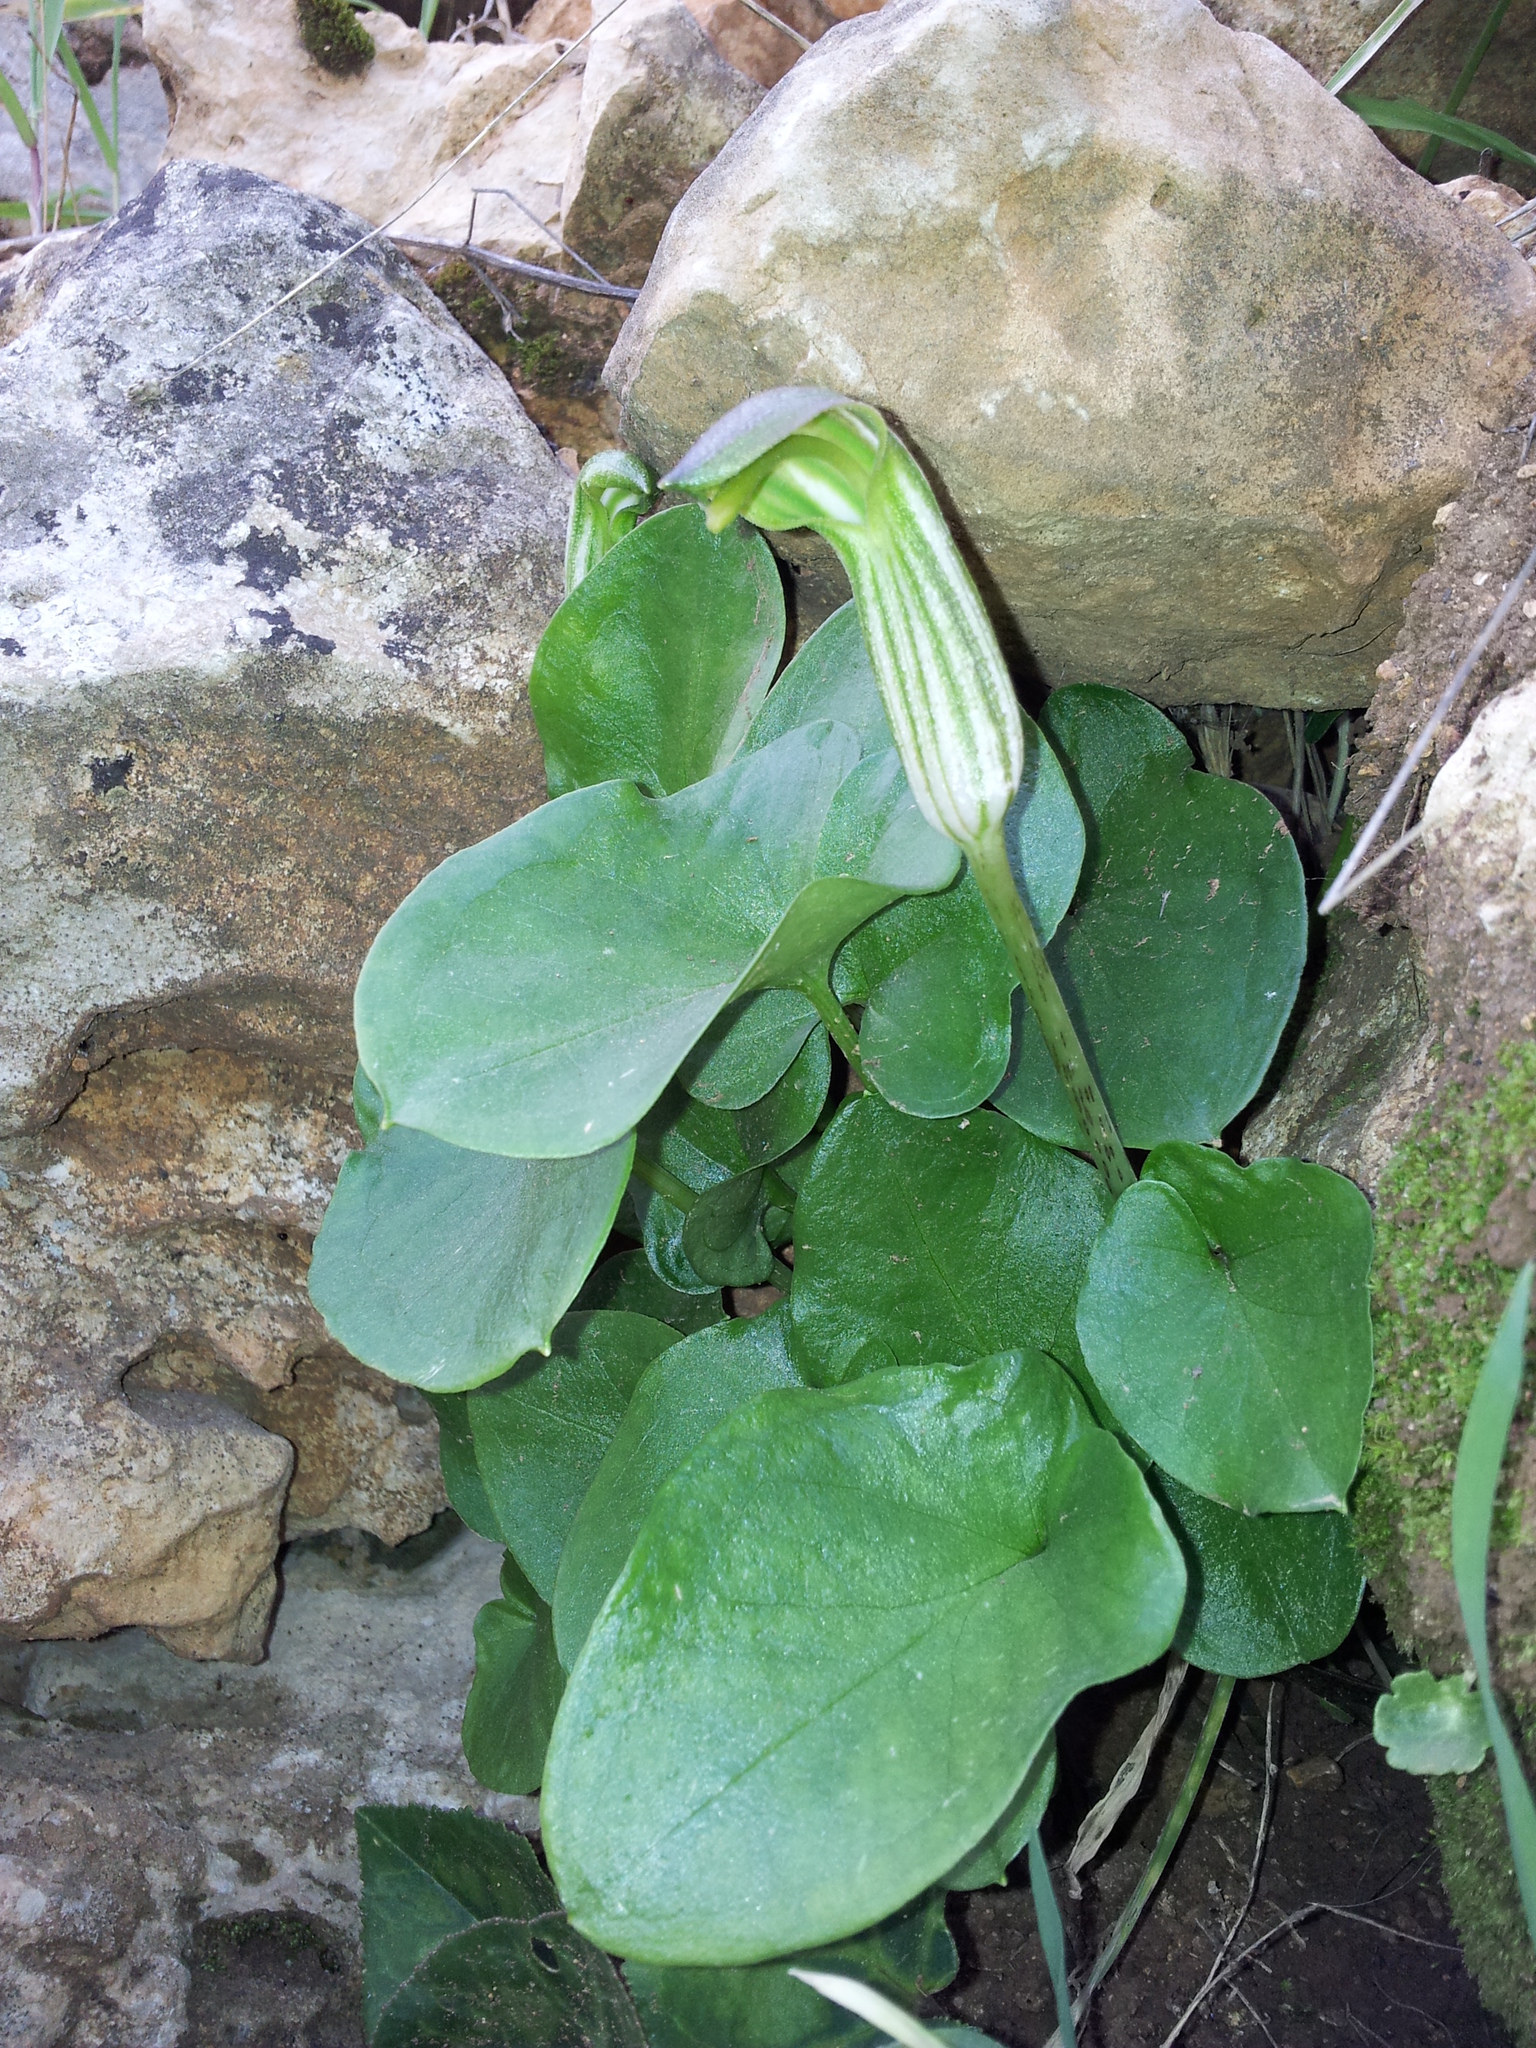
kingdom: Plantae
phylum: Tracheophyta
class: Liliopsida
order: Alismatales
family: Araceae
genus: Arisarum
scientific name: Arisarum vulgare
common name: Common arisarum
